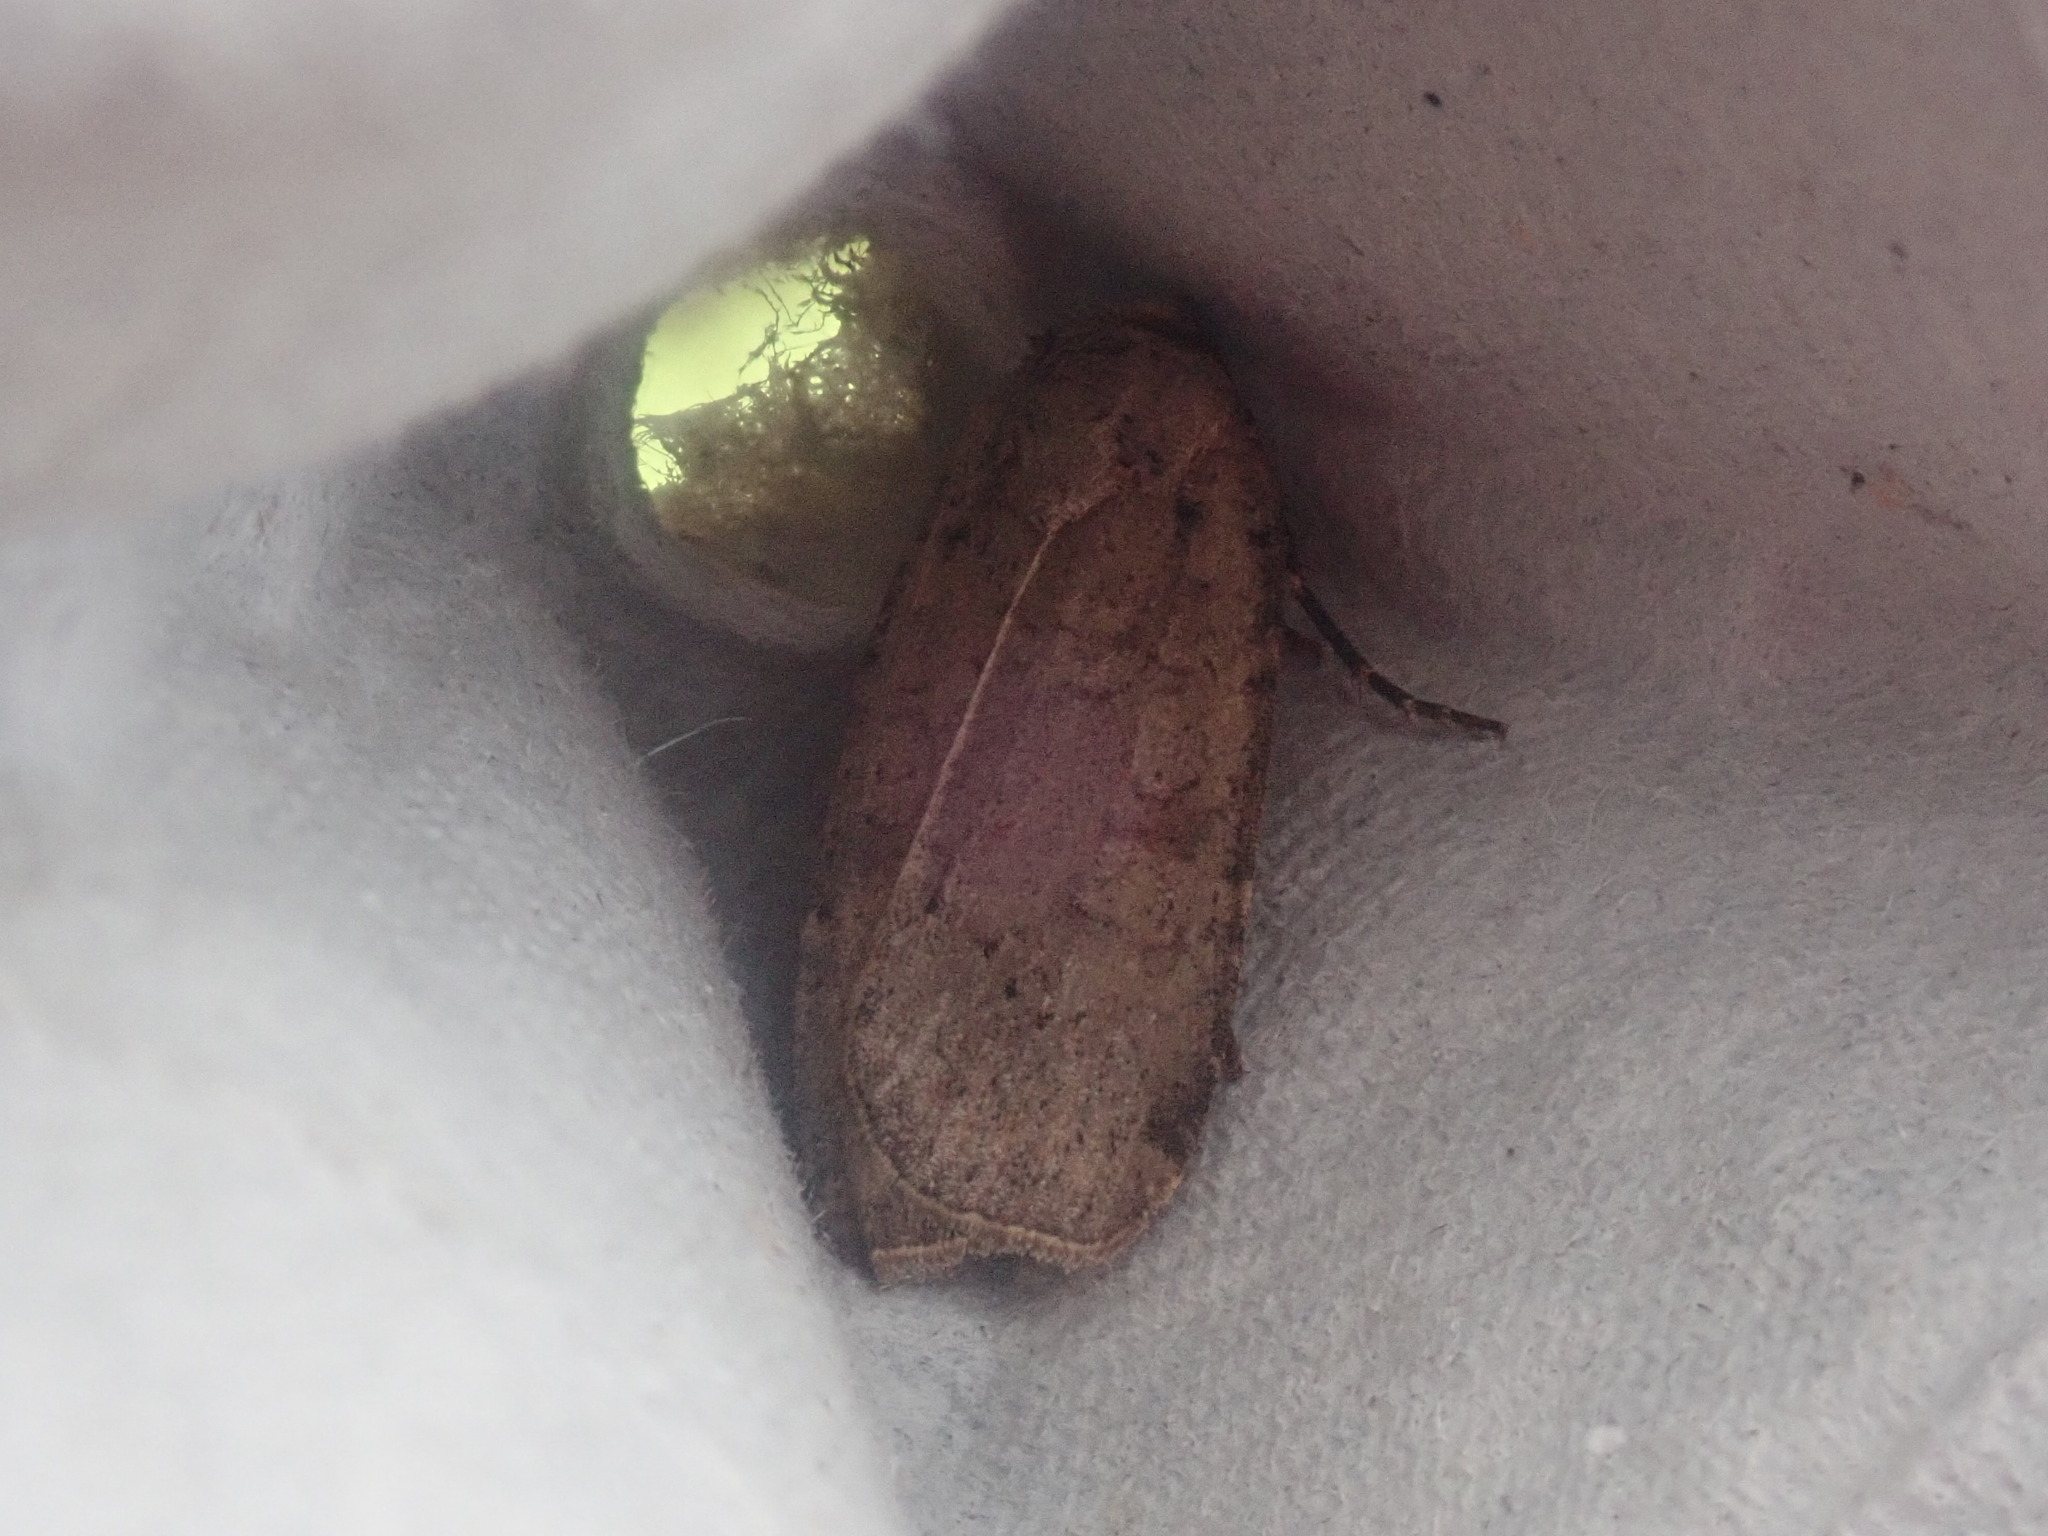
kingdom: Animalia
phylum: Arthropoda
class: Insecta
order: Lepidoptera
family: Noctuidae
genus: Protolampra
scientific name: Protolampra brunneicollis
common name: Brown-collared dart
